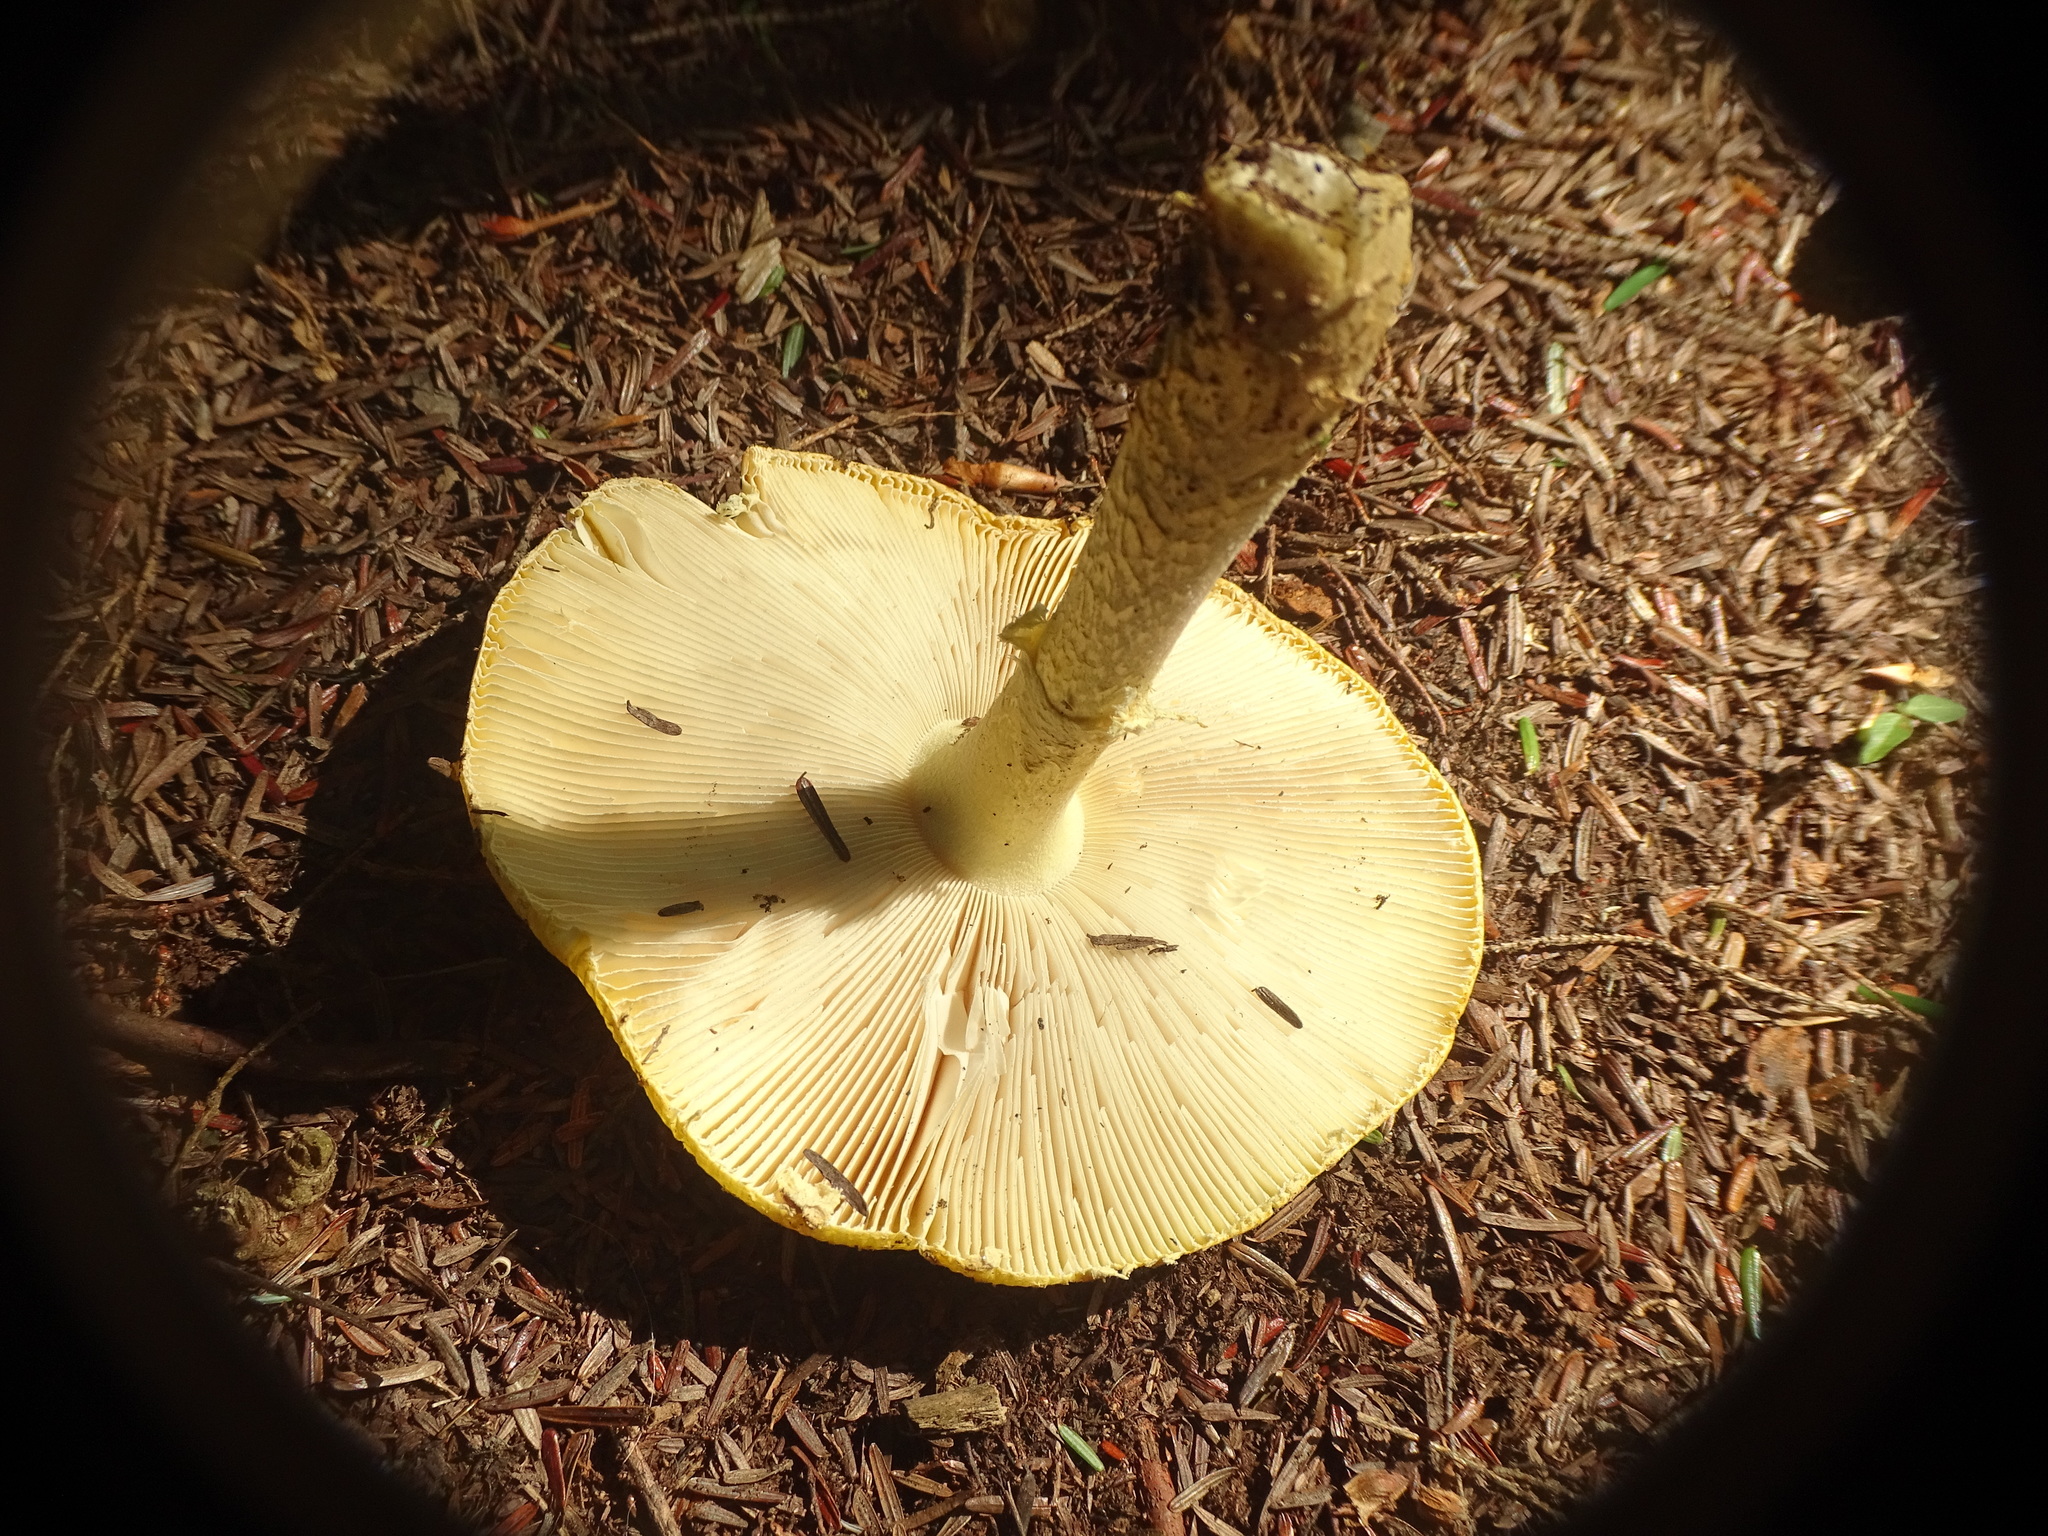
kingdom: Fungi
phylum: Basidiomycota
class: Agaricomycetes
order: Agaricales
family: Amanitaceae
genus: Amanita
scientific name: Amanita muscaria
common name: Fly agaric
